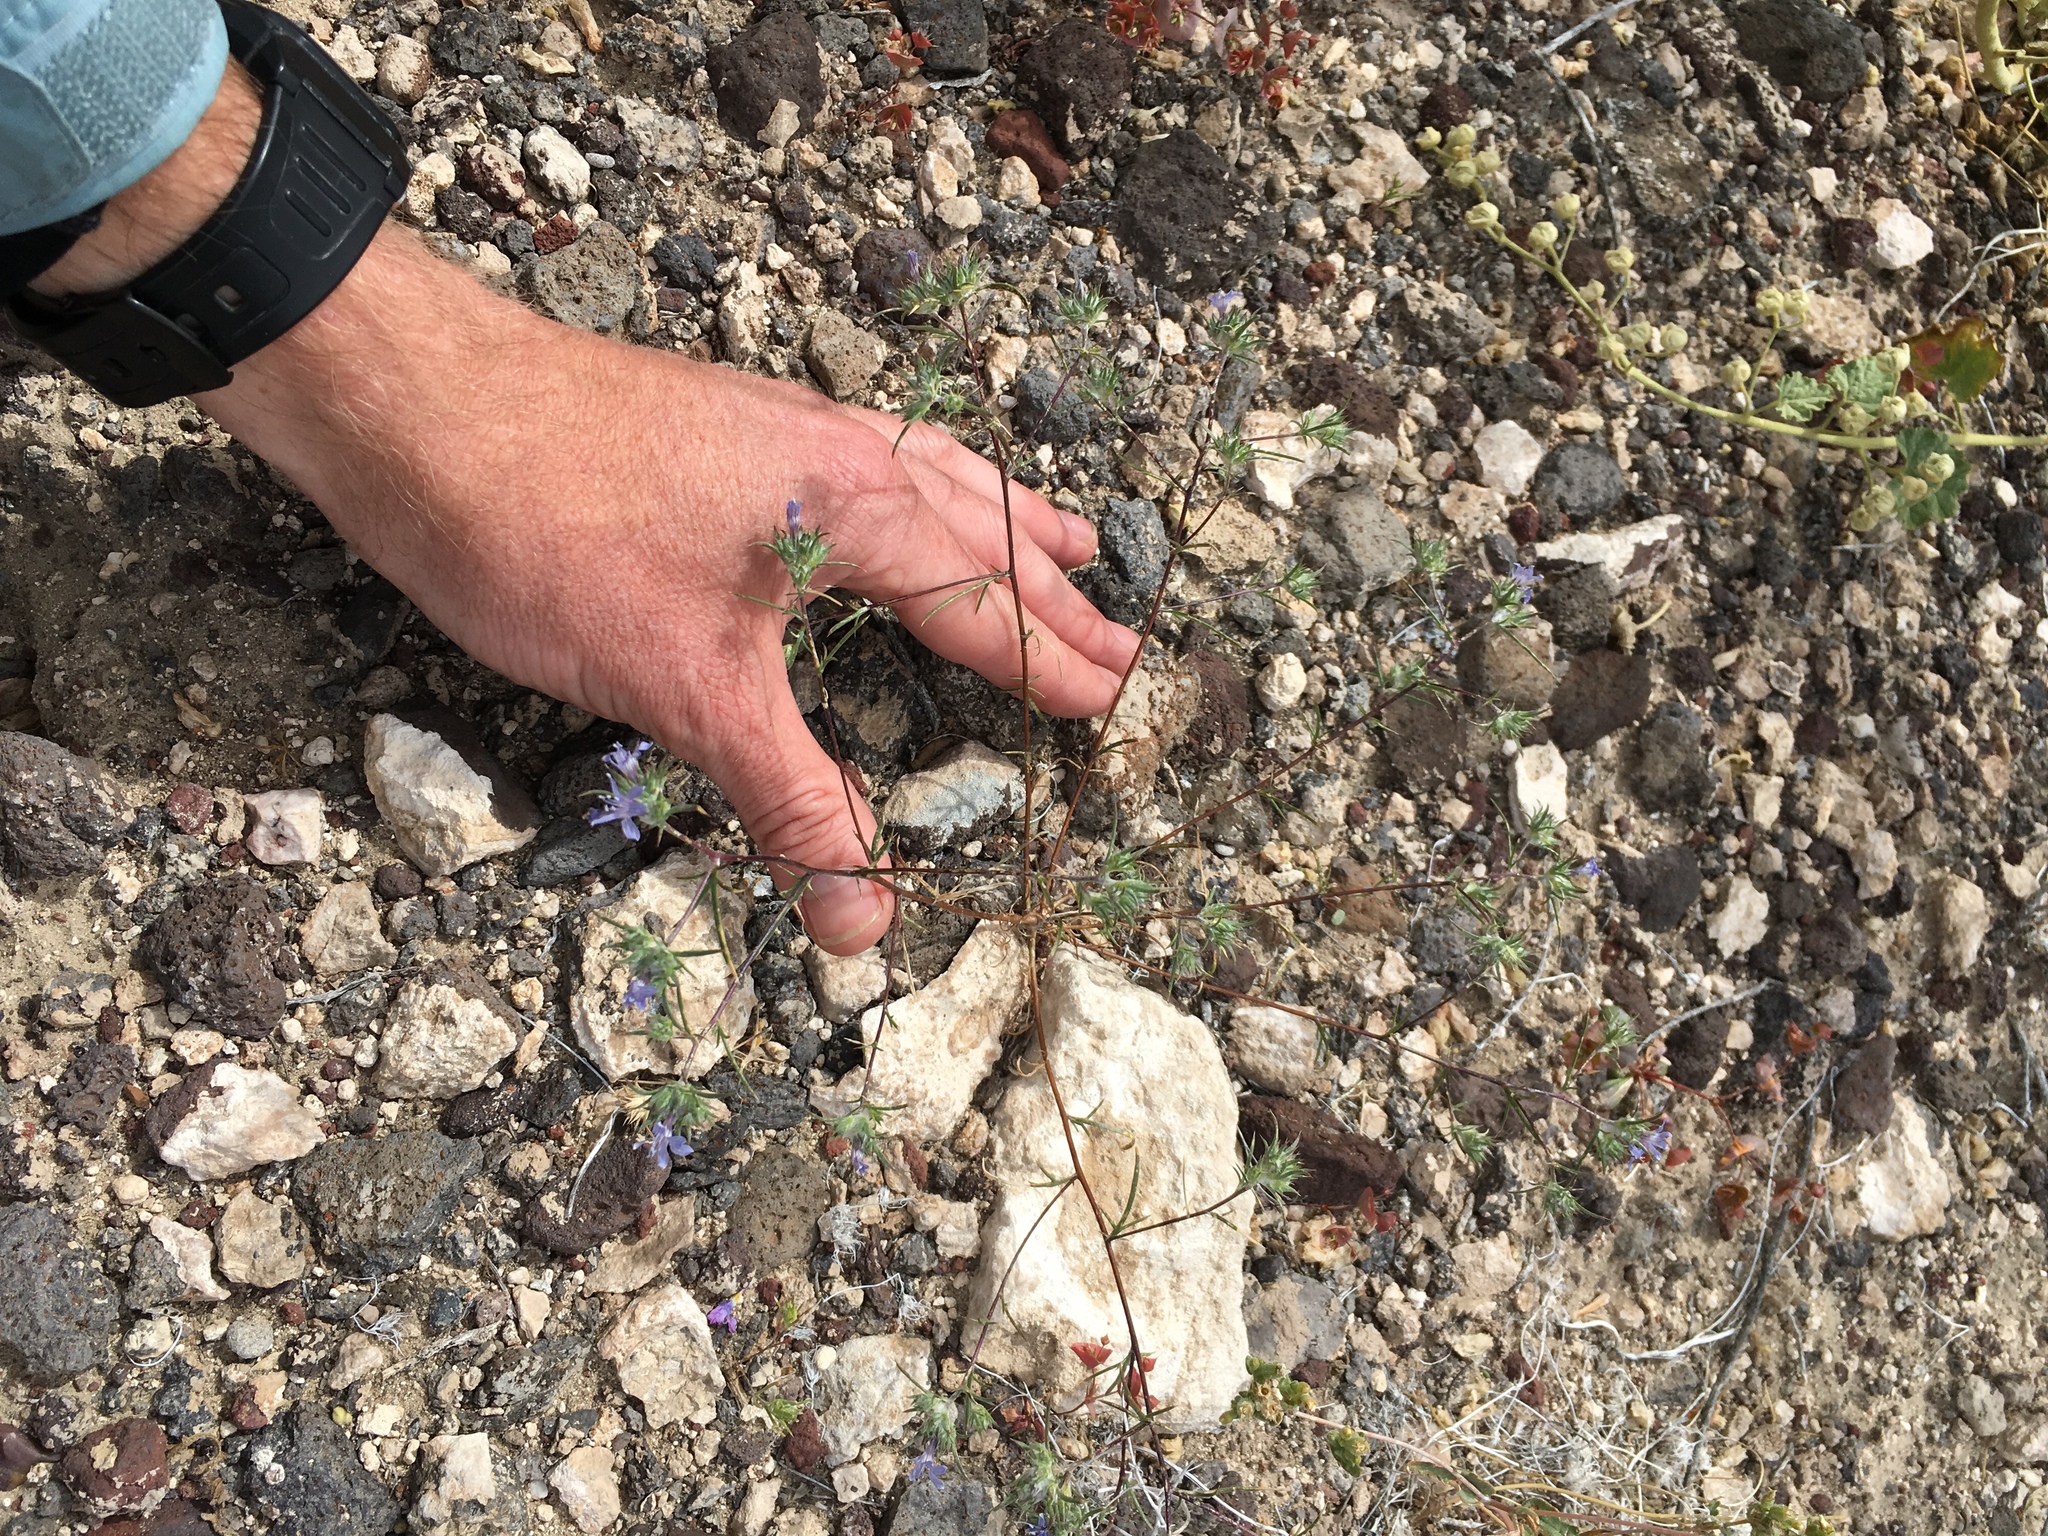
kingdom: Plantae
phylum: Tracheophyta
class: Magnoliopsida
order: Ericales
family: Polemoniaceae
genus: Eriastrum
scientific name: Eriastrum eremicum
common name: Desert eriastrum
